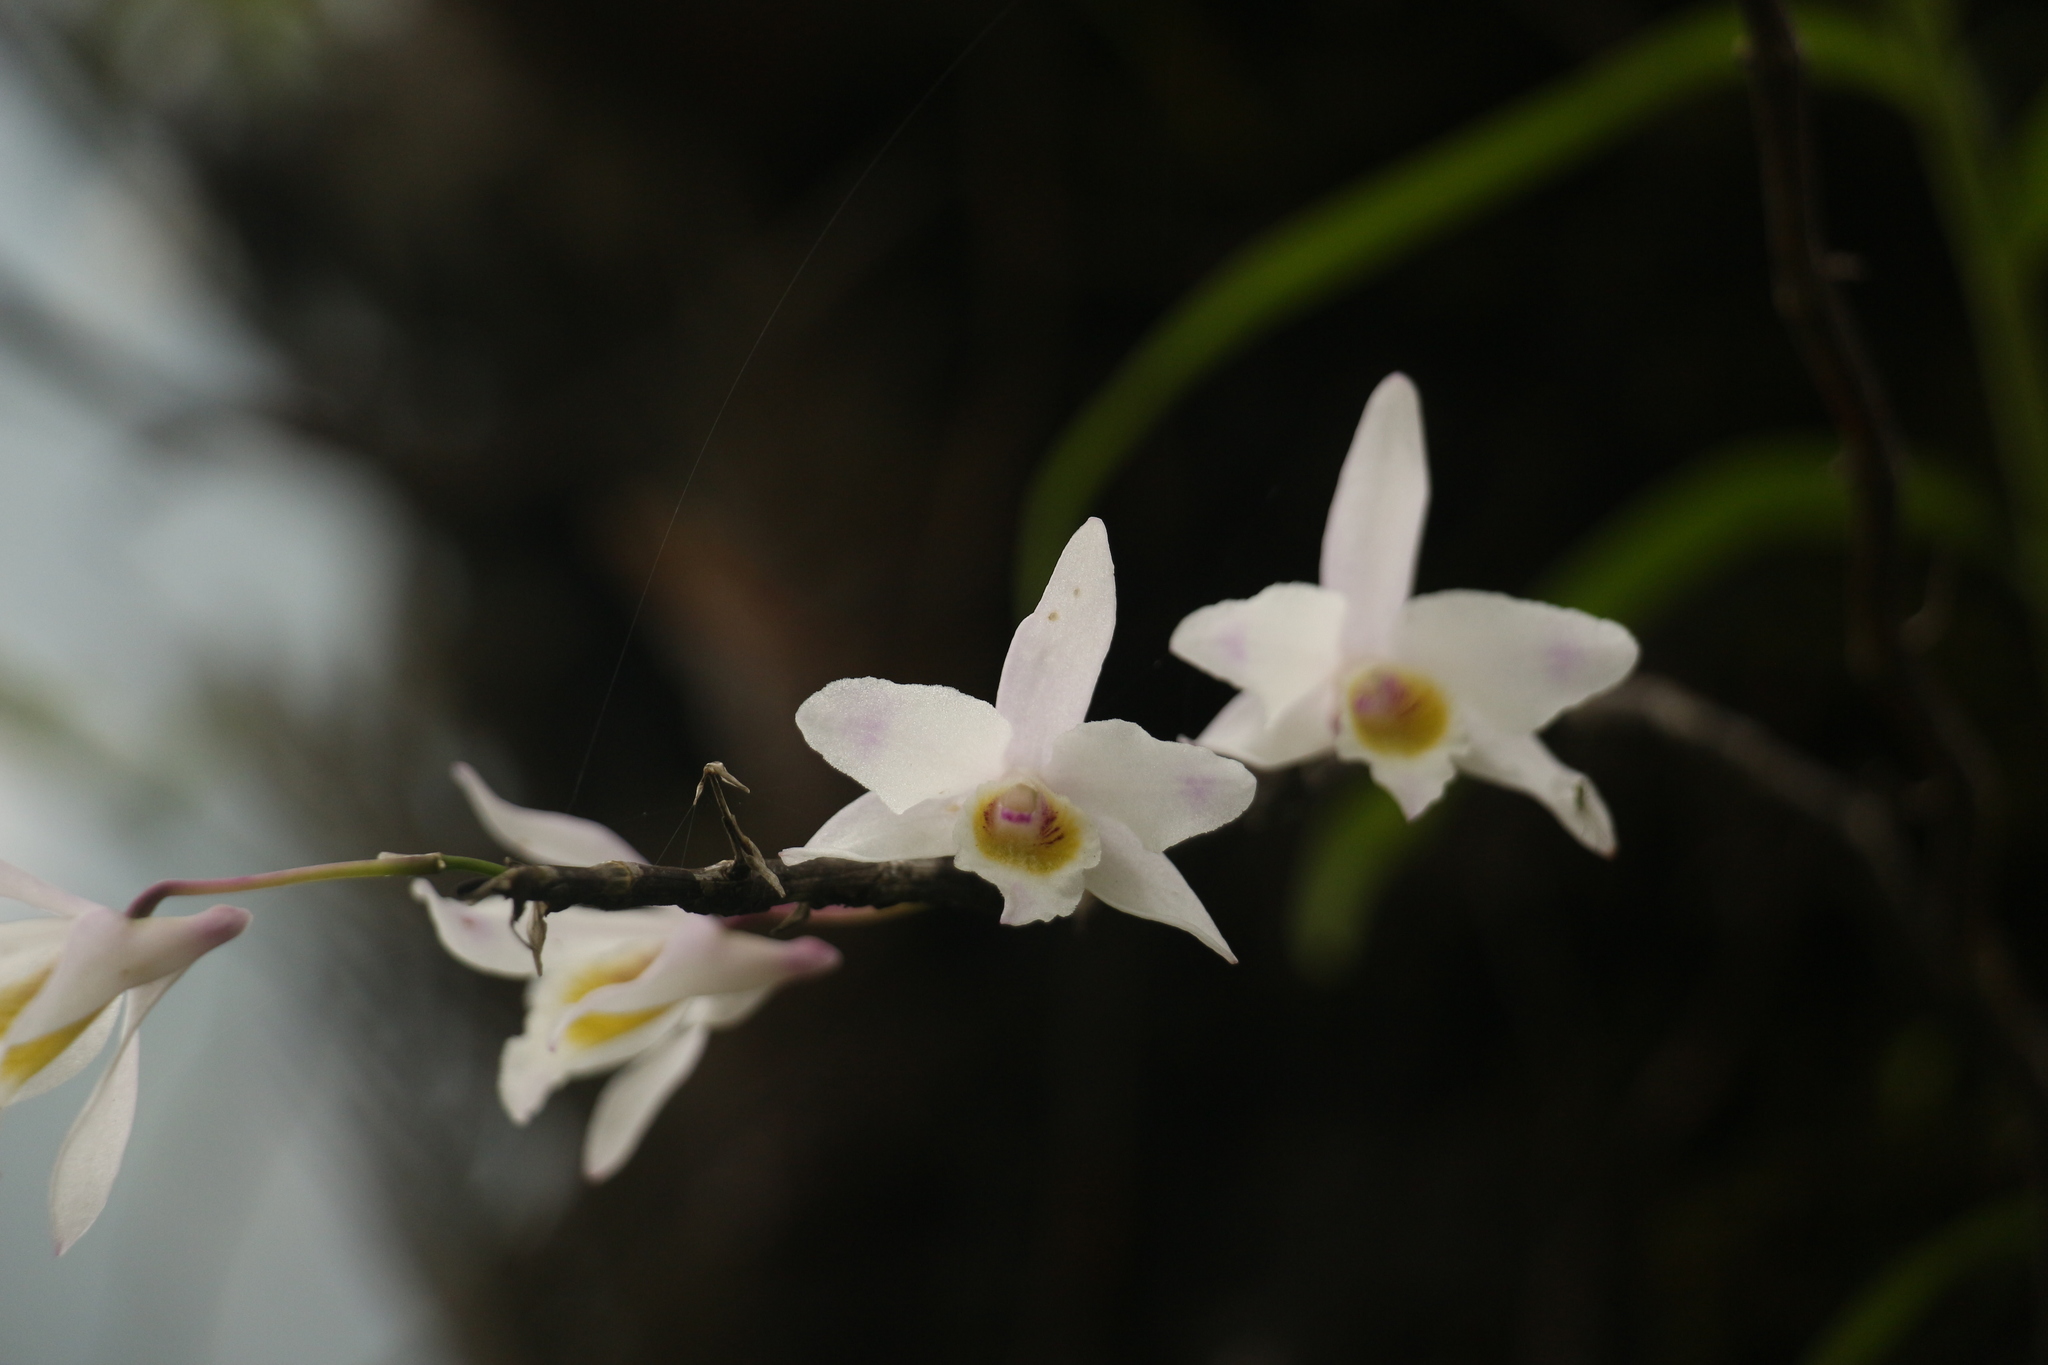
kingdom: Plantae
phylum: Tracheophyta
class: Liliopsida
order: Asparagales
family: Orchidaceae
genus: Dendrobium
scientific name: Dendrobium amoenum
